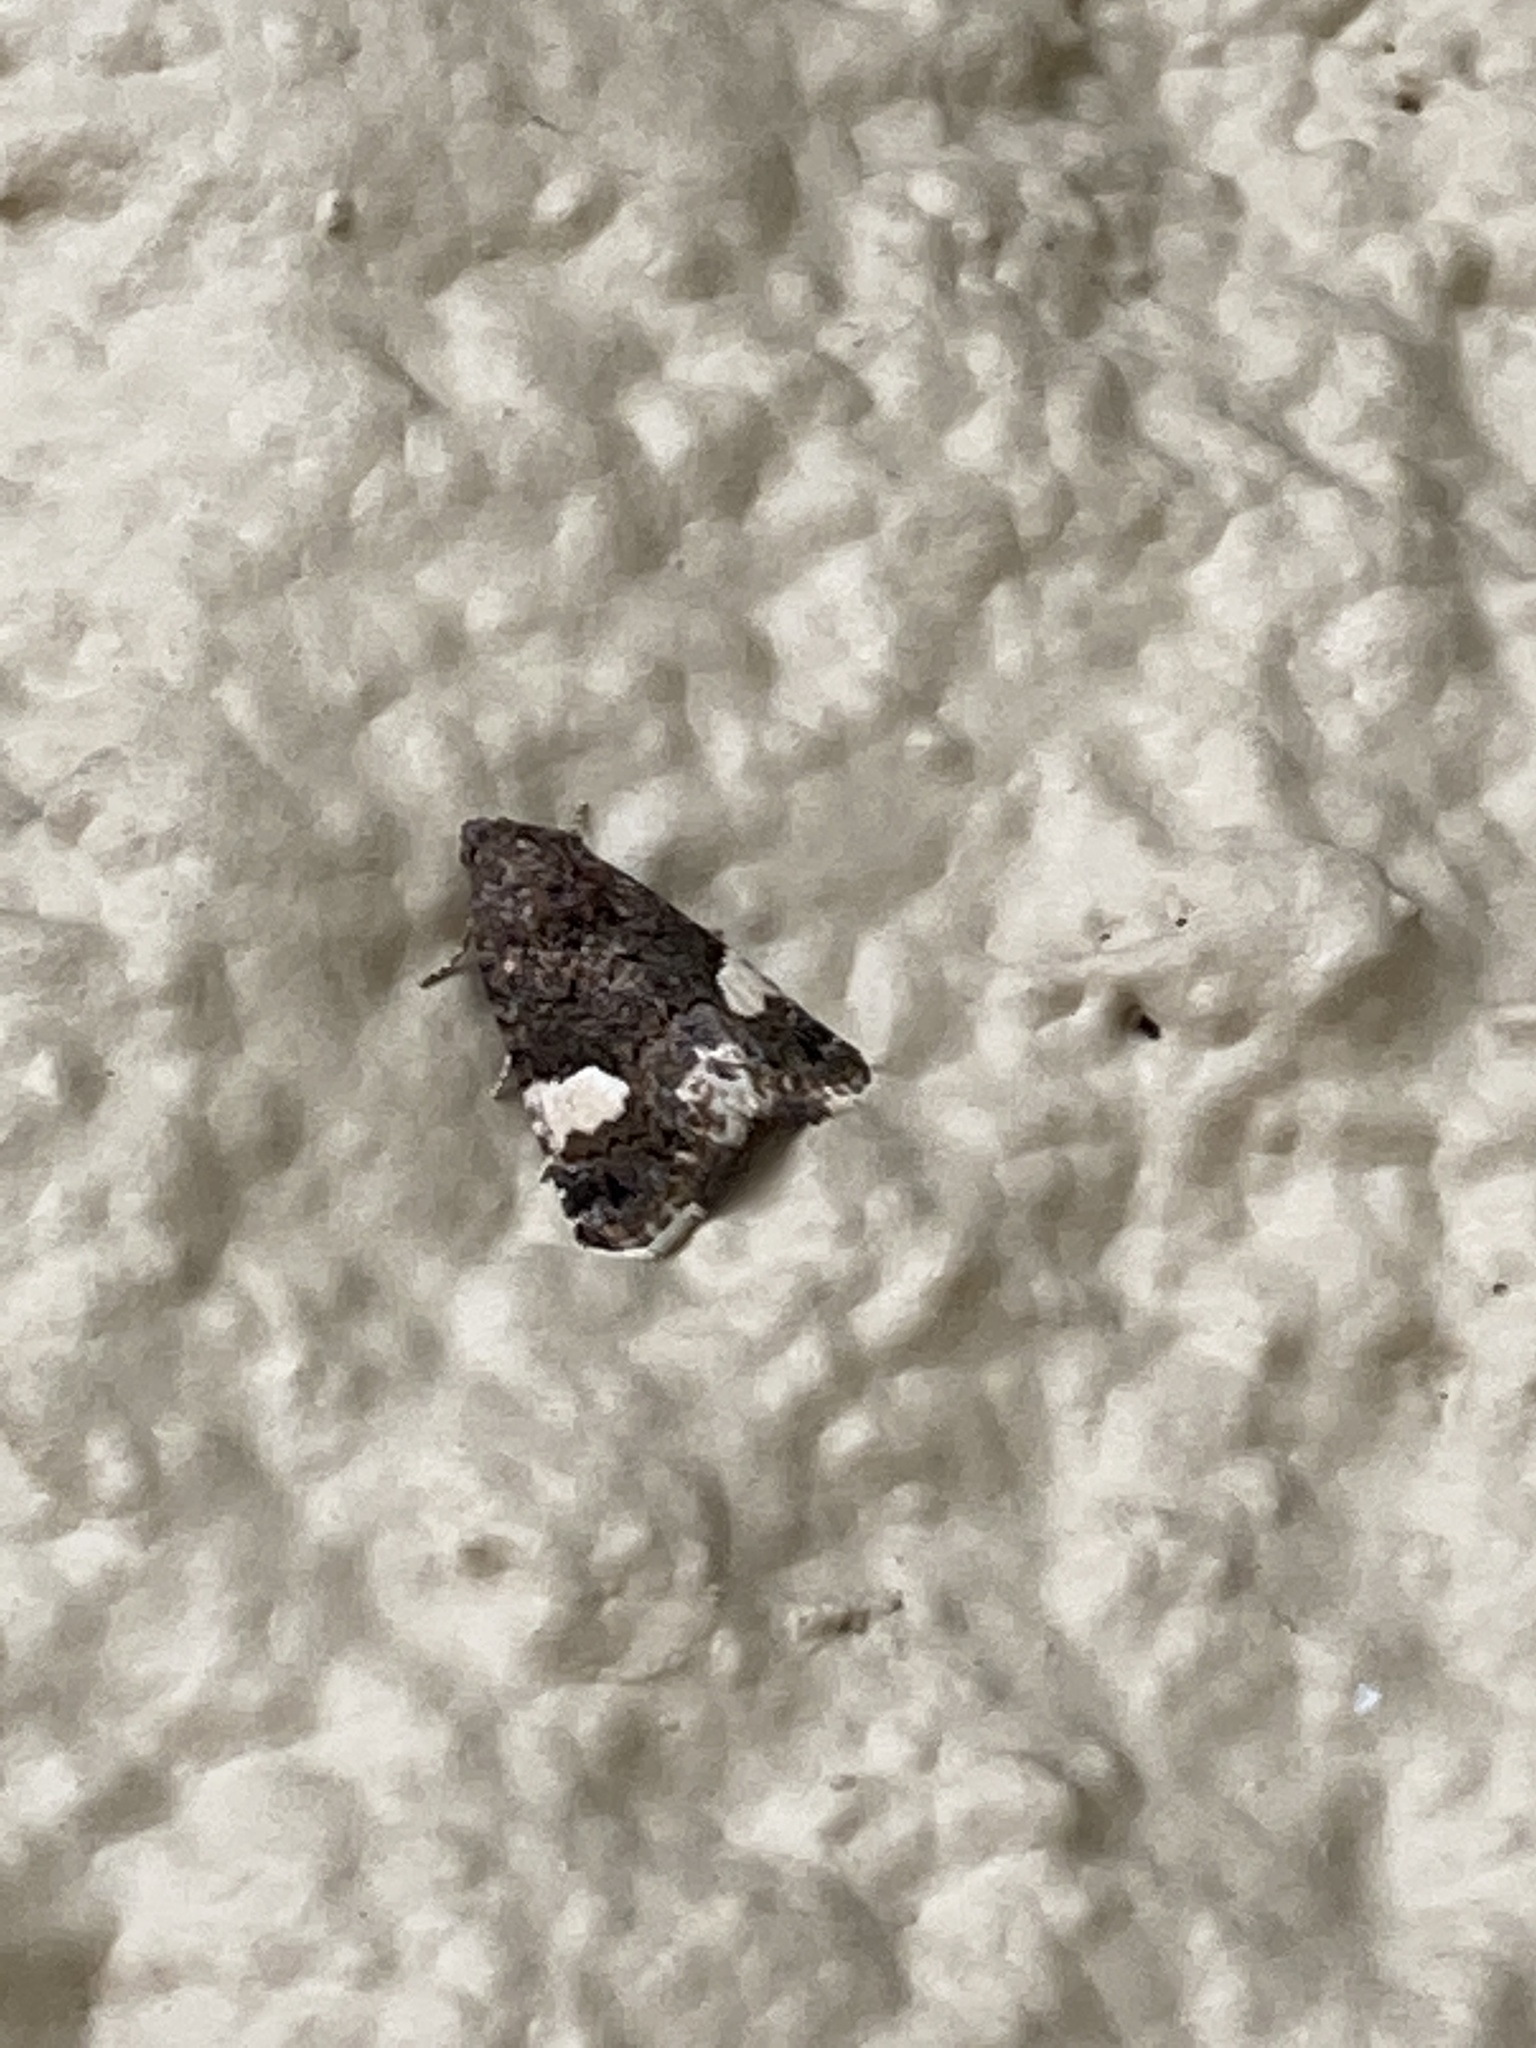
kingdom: Animalia
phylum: Arthropoda
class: Insecta
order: Lepidoptera
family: Erebidae
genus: Tyta
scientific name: Tyta luctuosa
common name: Four-spotted
